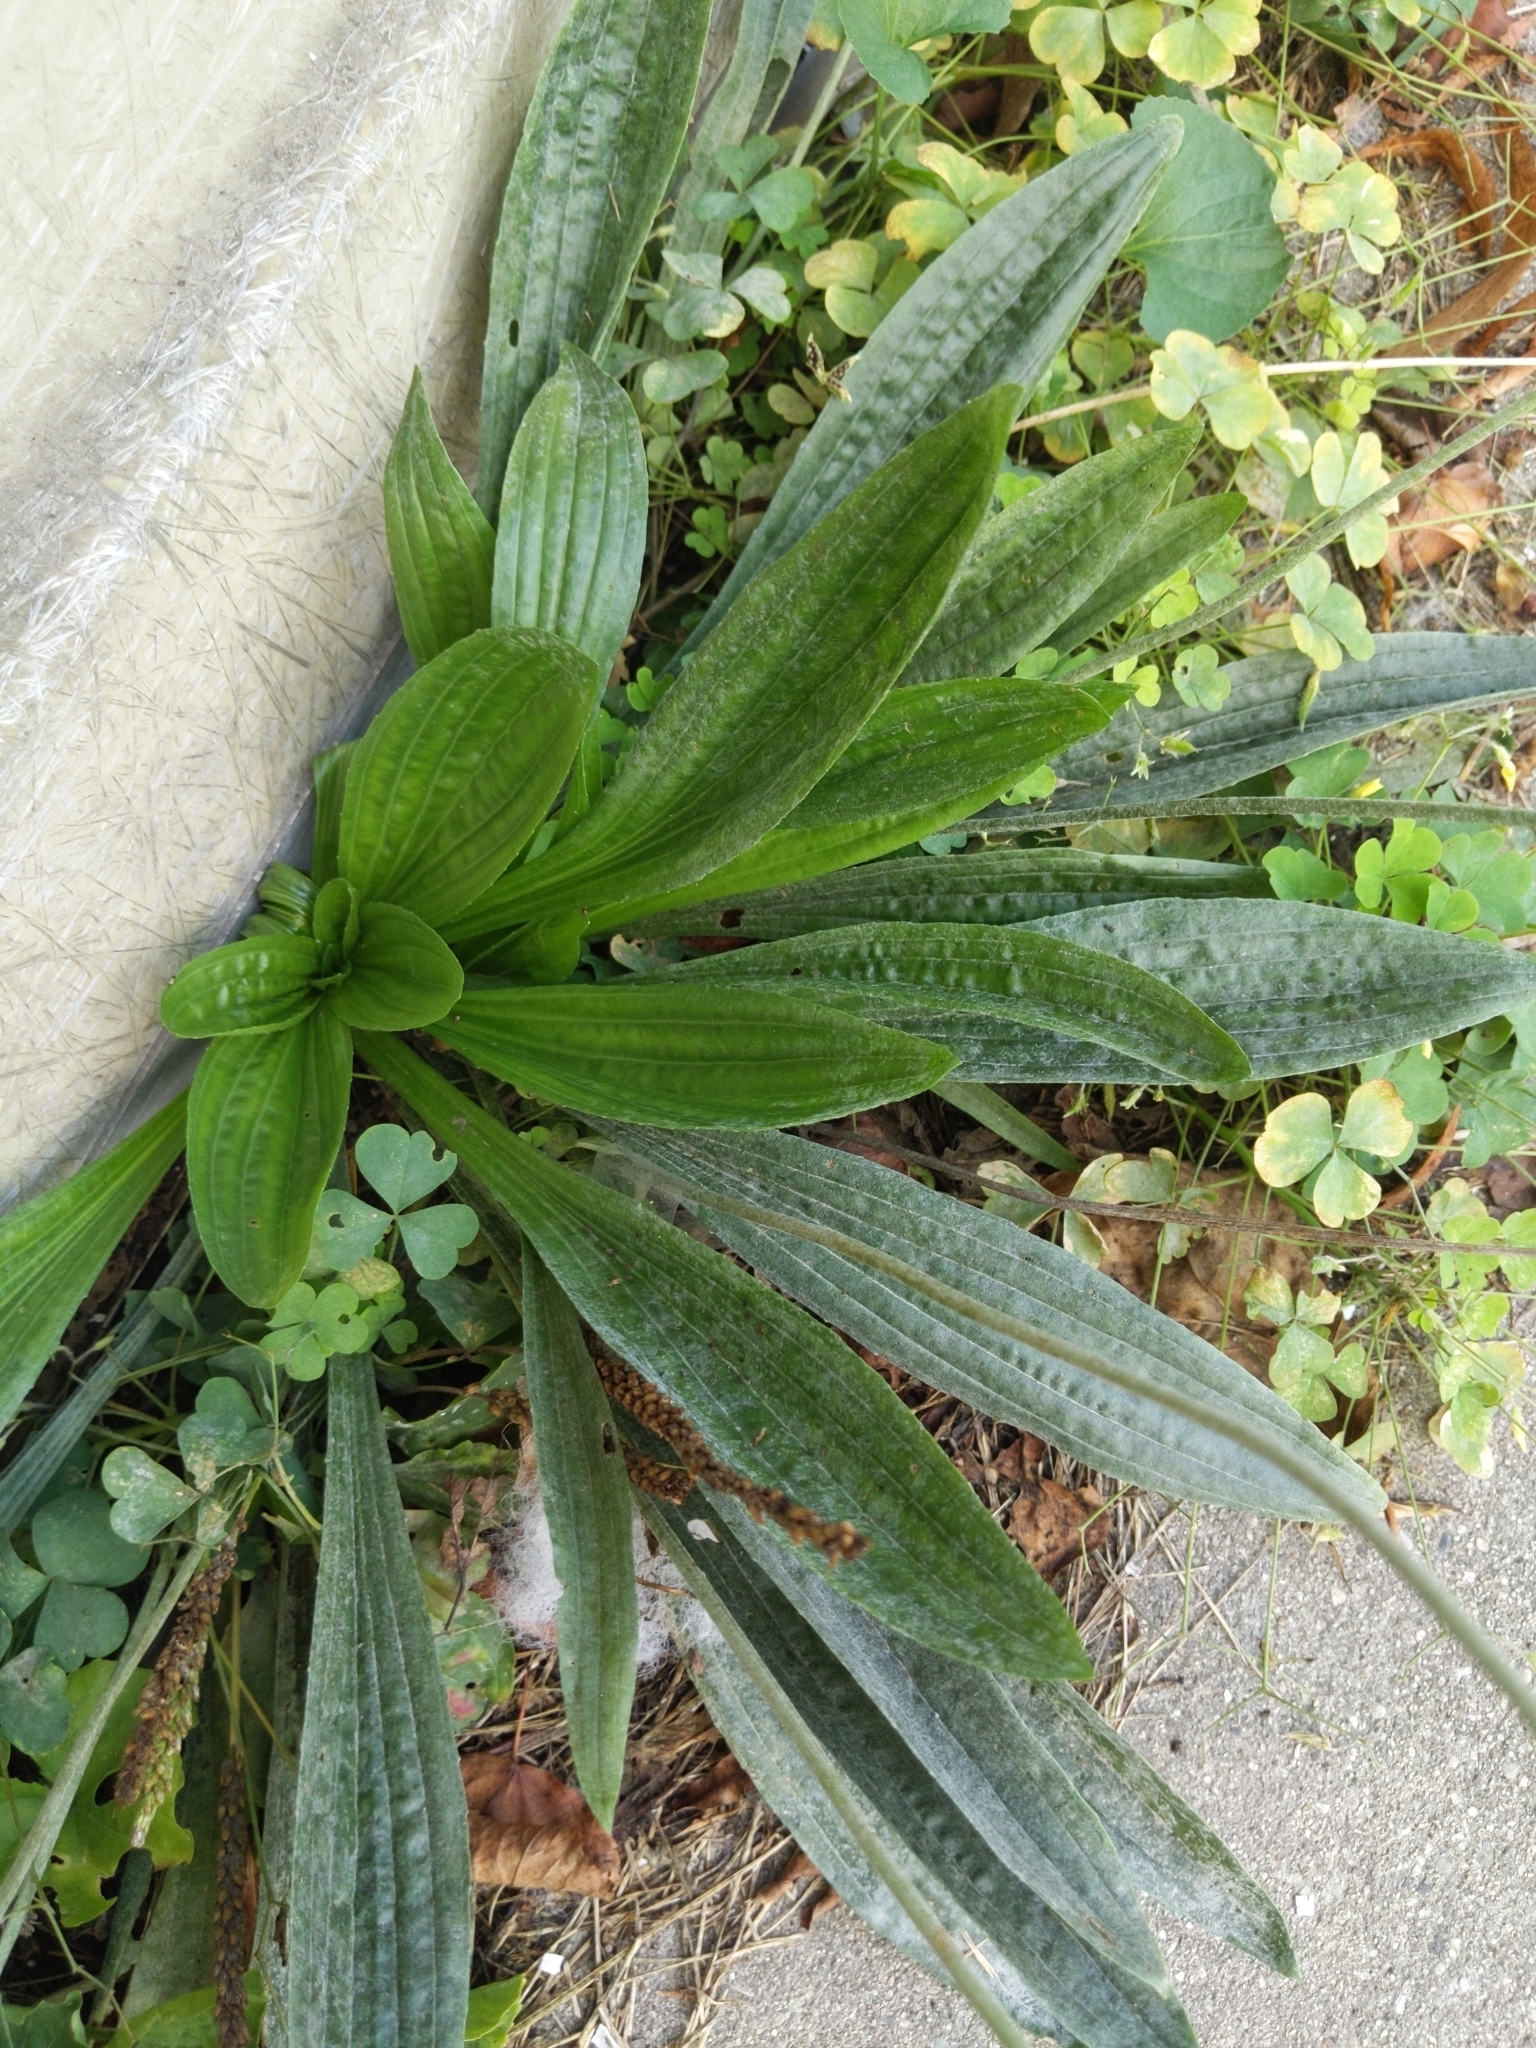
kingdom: Plantae
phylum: Tracheophyta
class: Magnoliopsida
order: Lamiales
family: Plantaginaceae
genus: Plantago
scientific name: Plantago lanceolata
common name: Ribwort plantain
